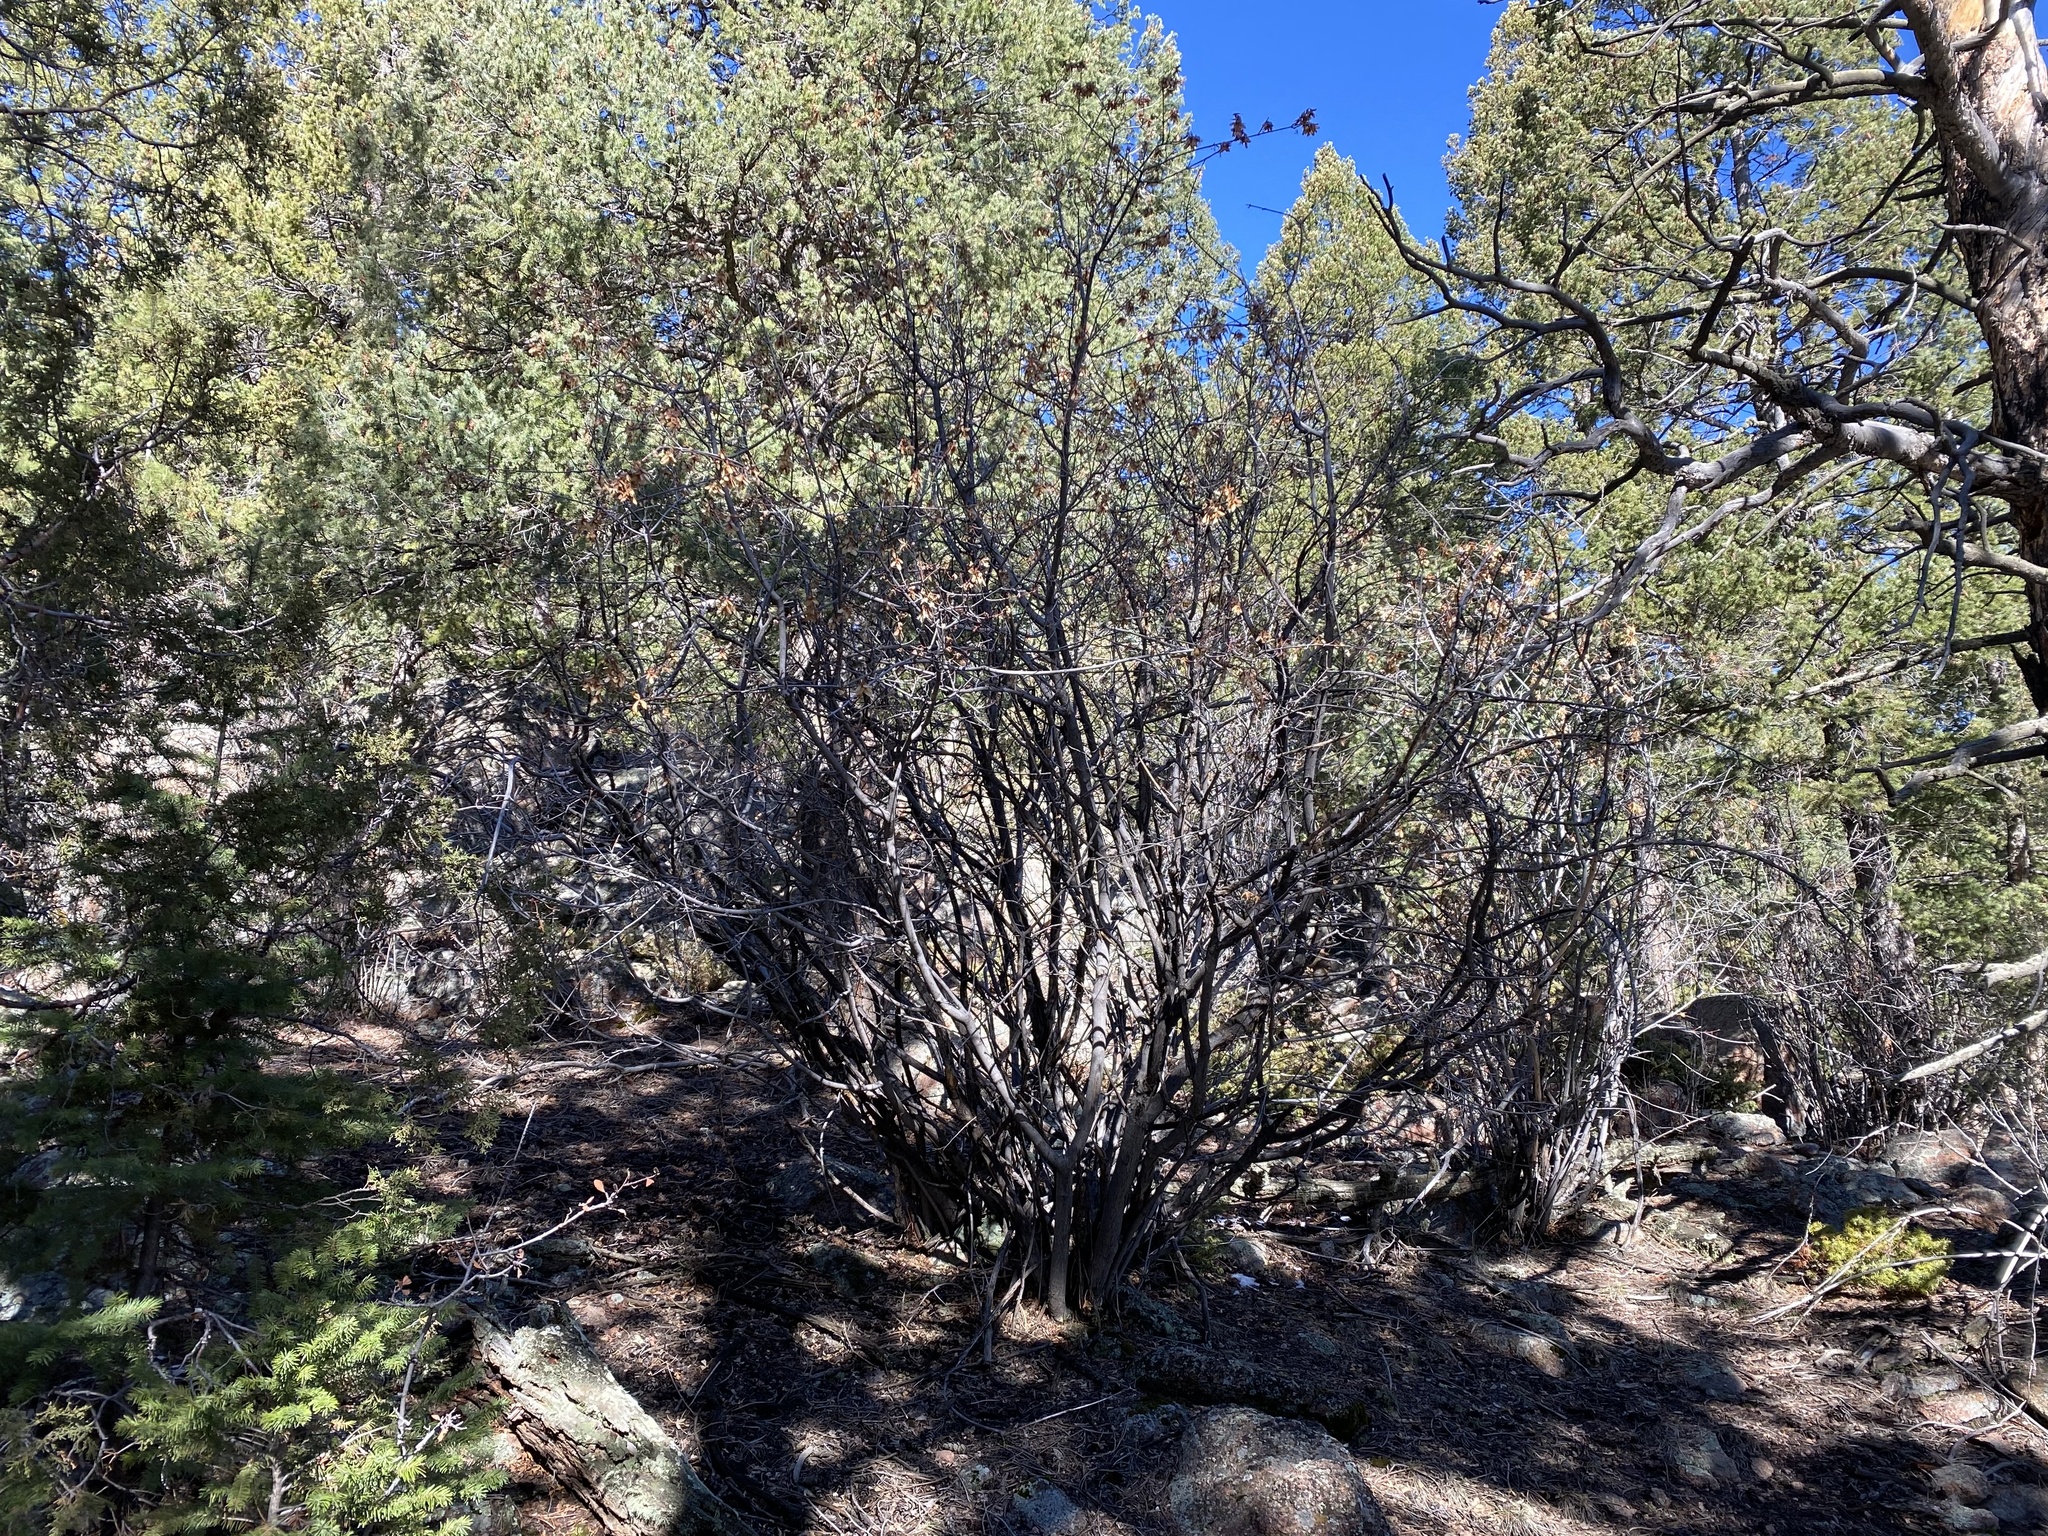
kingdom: Plantae
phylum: Tracheophyta
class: Magnoliopsida
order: Sapindales
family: Sapindaceae
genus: Acer
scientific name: Acer negundo
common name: Ashleaf maple
